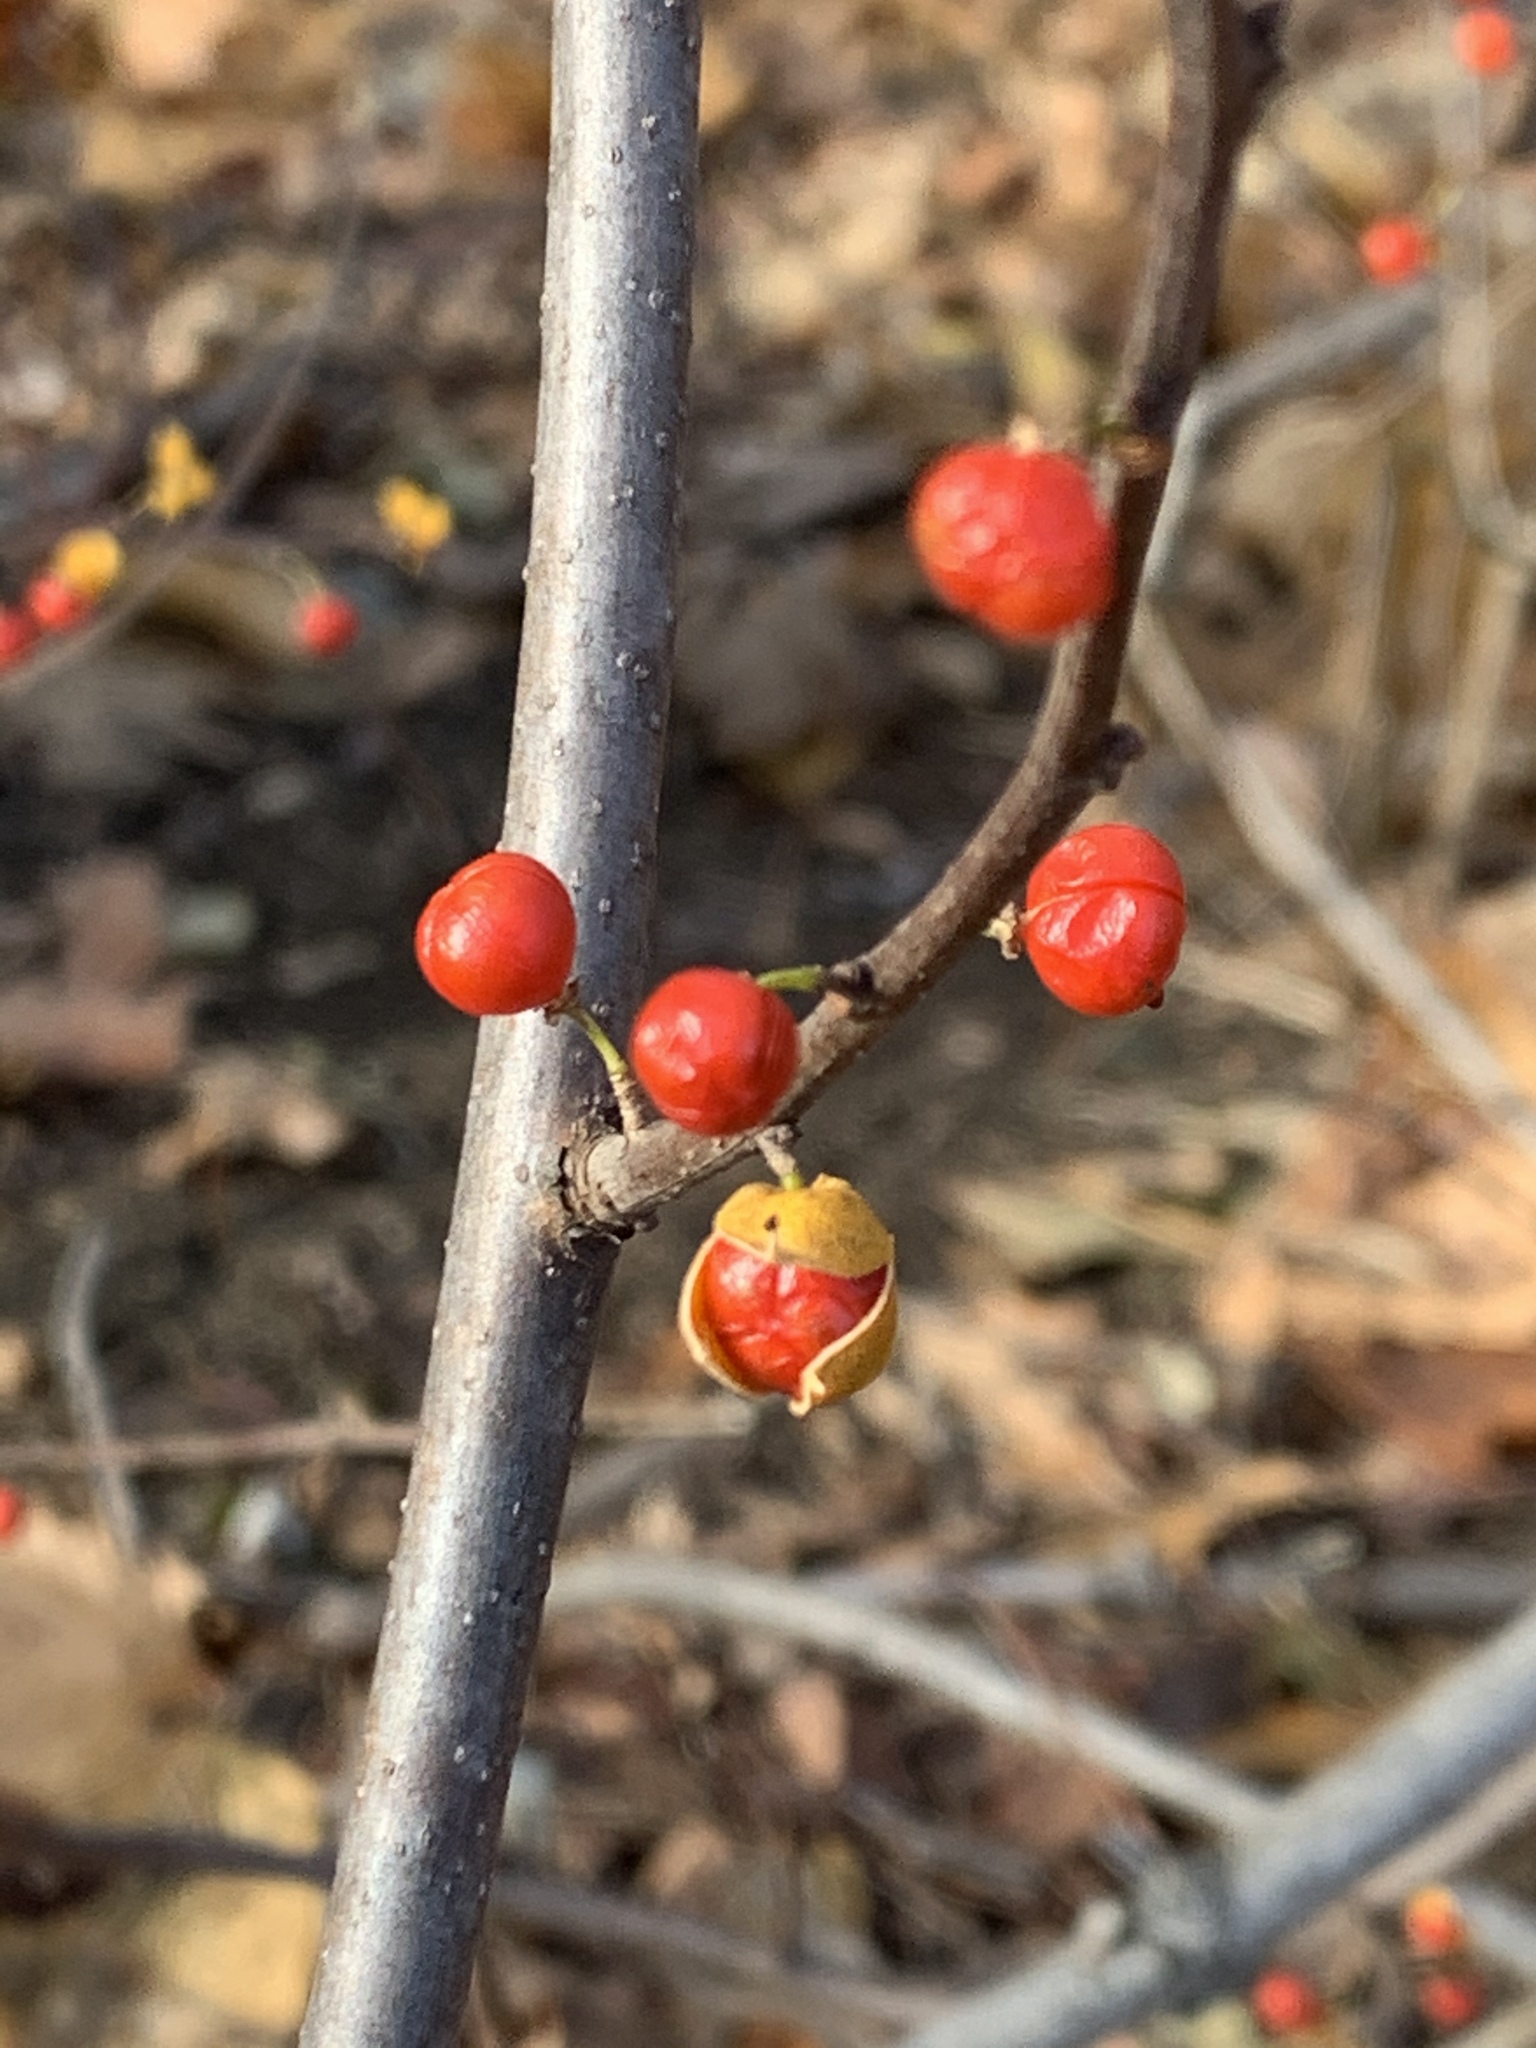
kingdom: Plantae
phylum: Tracheophyta
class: Magnoliopsida
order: Celastrales
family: Celastraceae
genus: Celastrus
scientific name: Celastrus orbiculatus
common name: Oriental bittersweet
